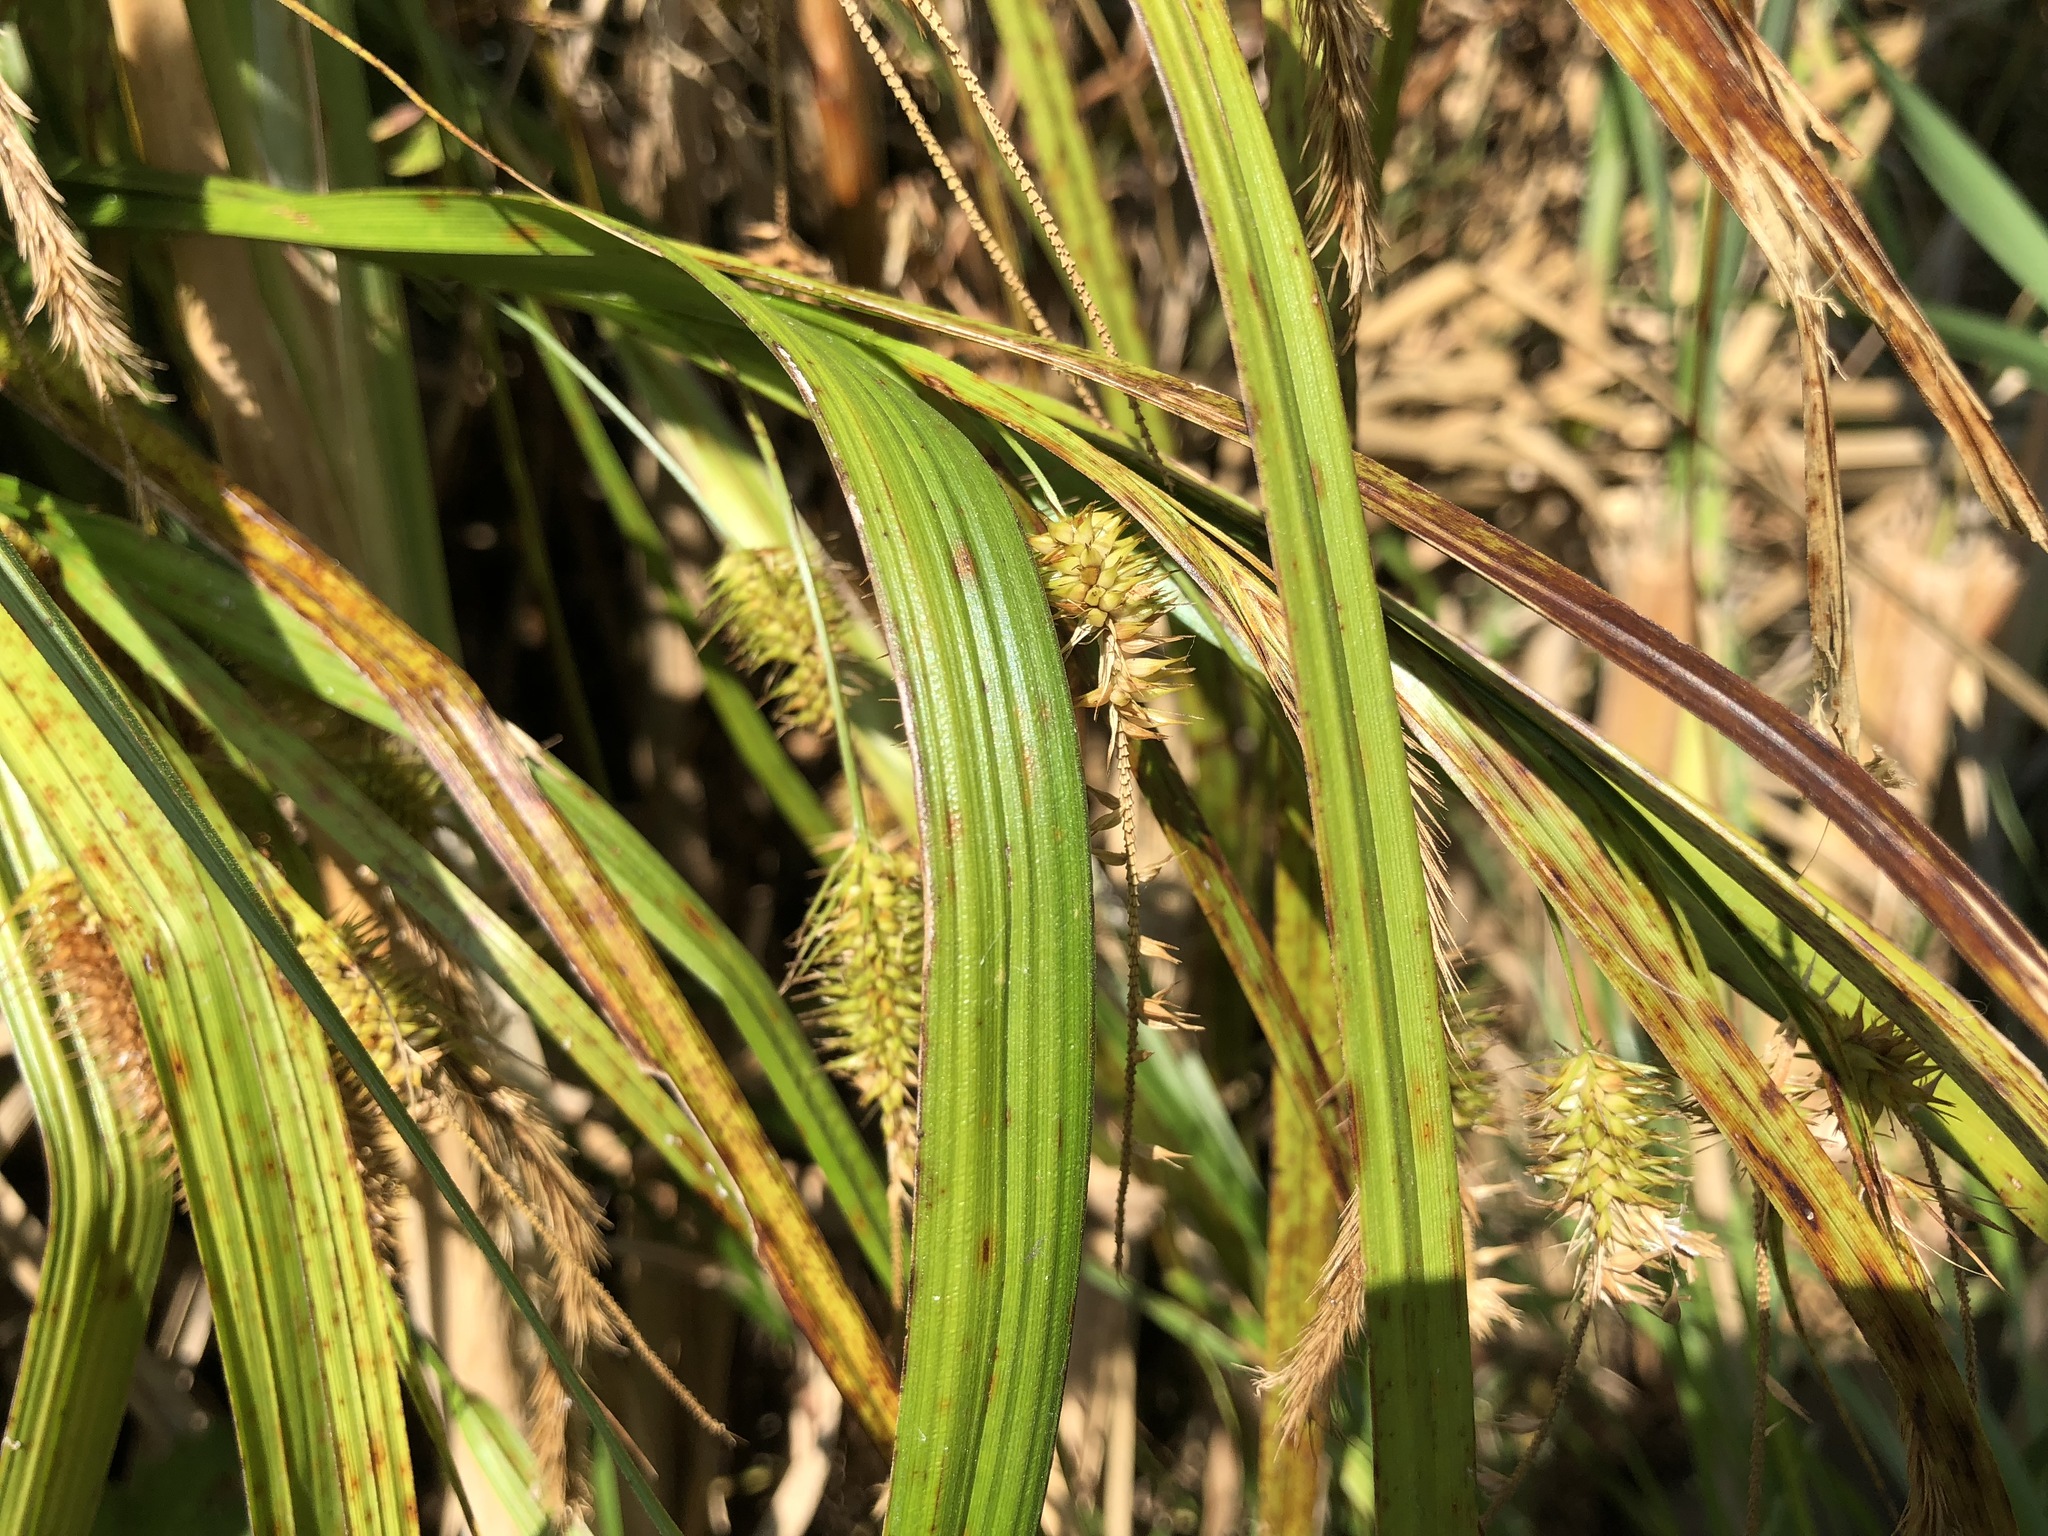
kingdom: Plantae
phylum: Tracheophyta
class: Liliopsida
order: Poales
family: Cyperaceae
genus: Carex
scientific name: Carex pseudocyperus
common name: Cyperus sedge
